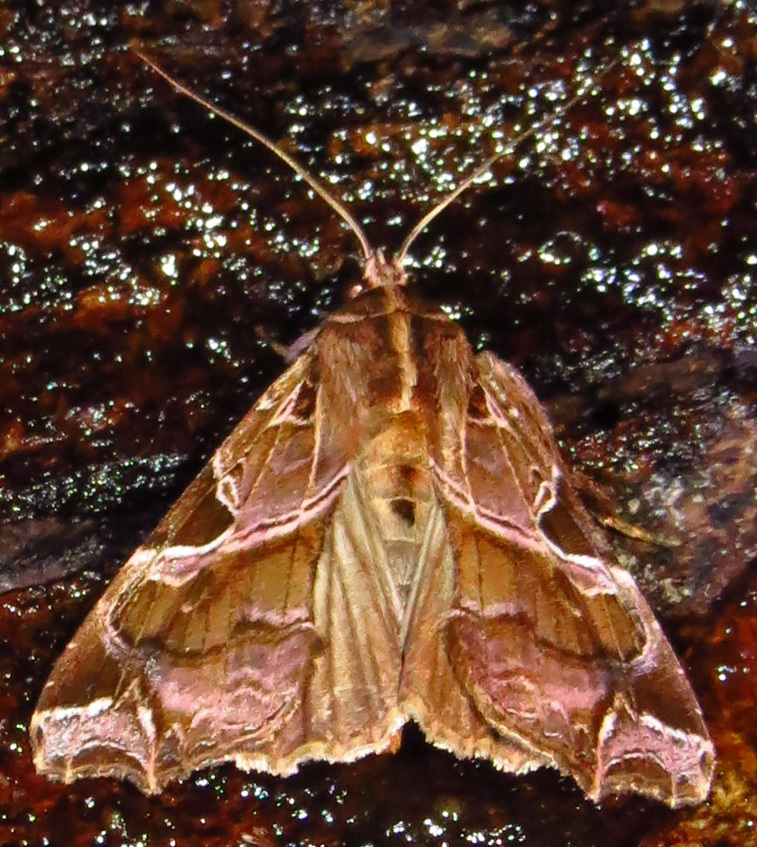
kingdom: Animalia
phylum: Arthropoda
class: Insecta
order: Lepidoptera
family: Noctuidae
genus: Callopistria
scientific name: Callopistria floridensis
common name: Florida fern moth
